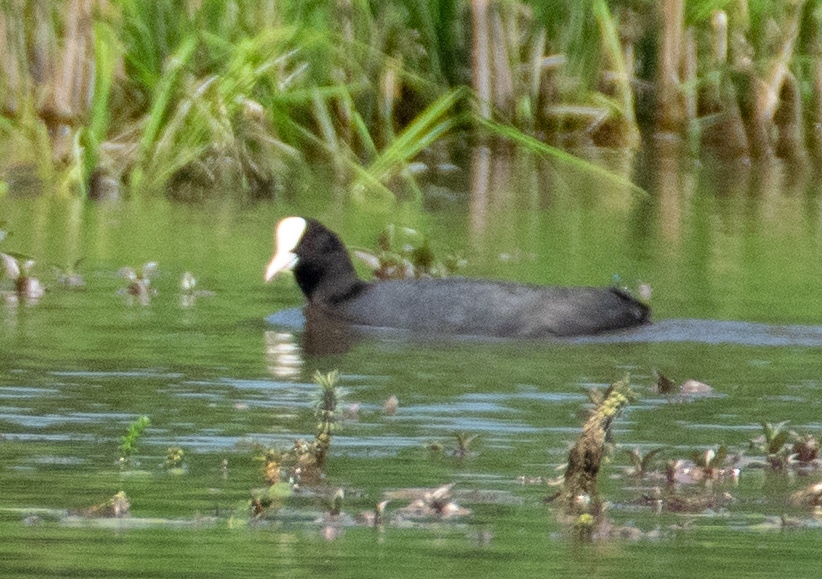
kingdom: Animalia
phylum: Chordata
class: Aves
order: Gruiformes
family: Rallidae
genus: Fulica
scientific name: Fulica atra
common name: Eurasian coot
